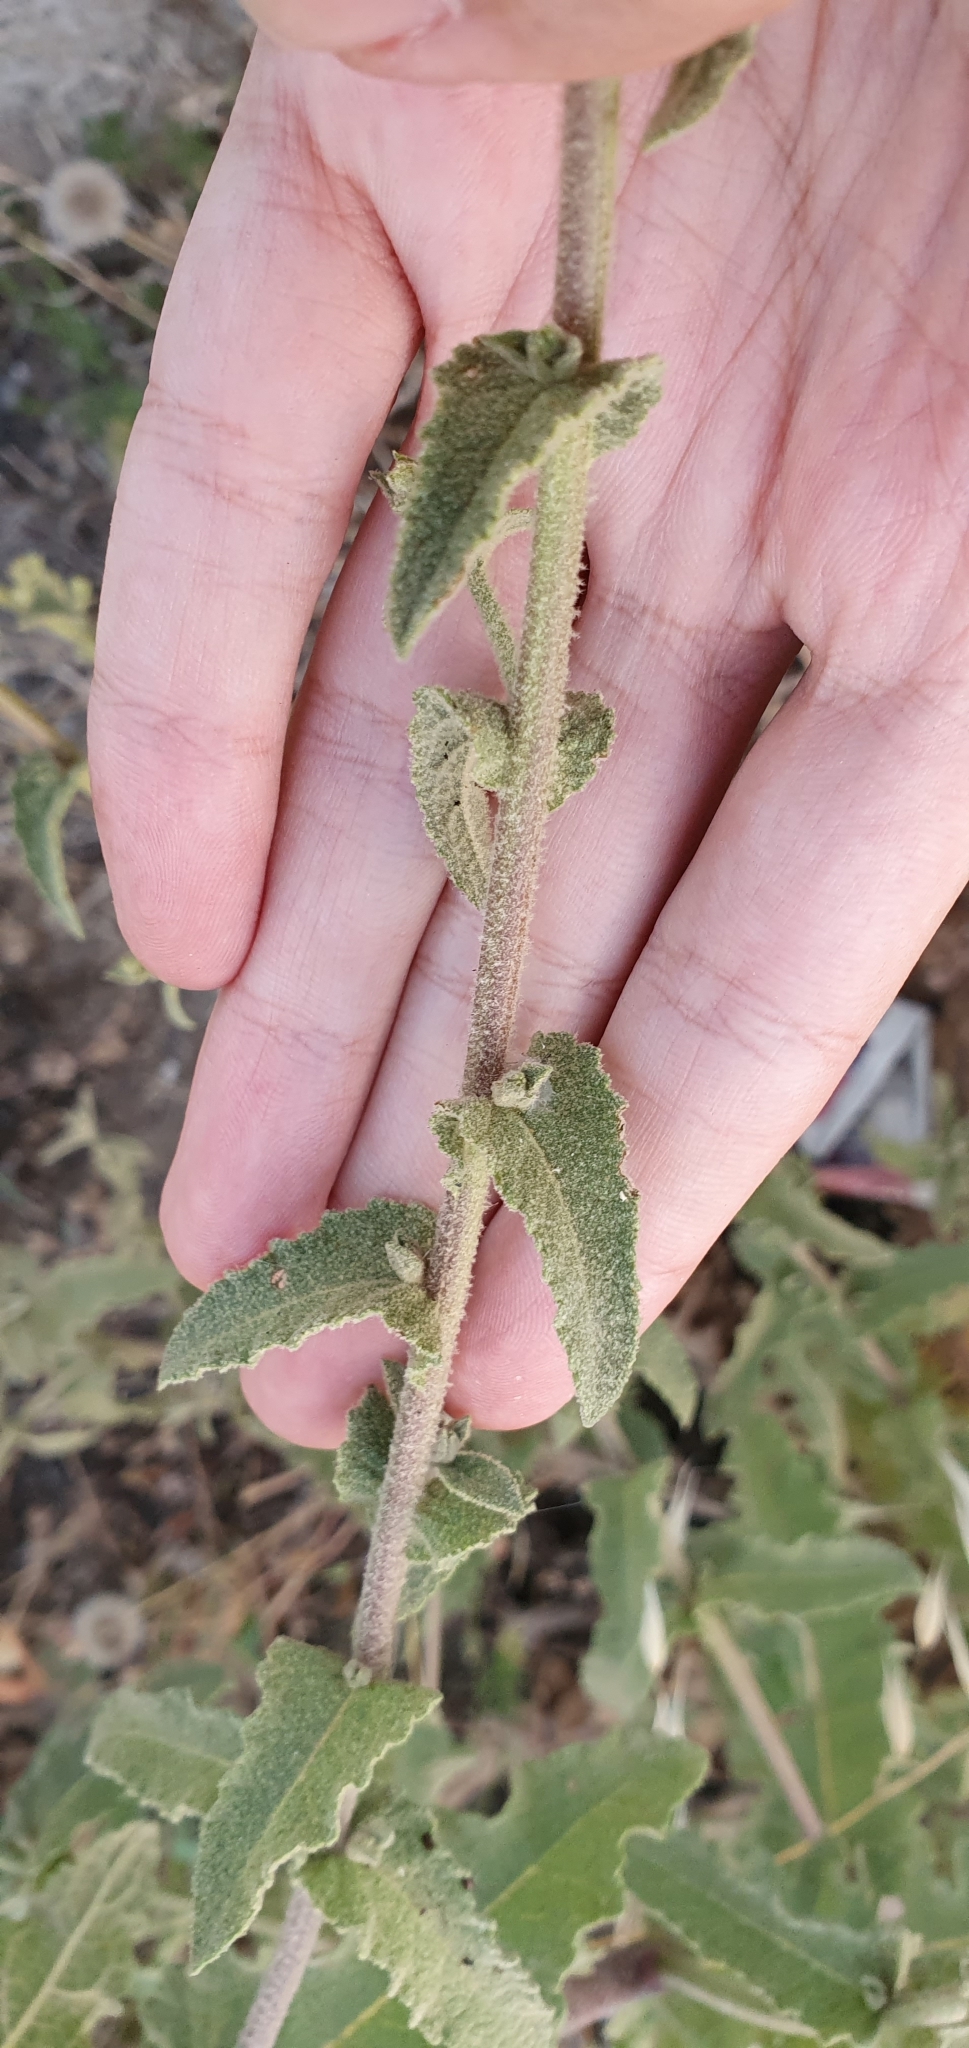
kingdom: Plantae
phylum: Tracheophyta
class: Magnoliopsida
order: Lamiales
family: Scrophulariaceae
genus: Verbascum
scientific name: Verbascum sinuatum
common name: Wavyleaf mullein
